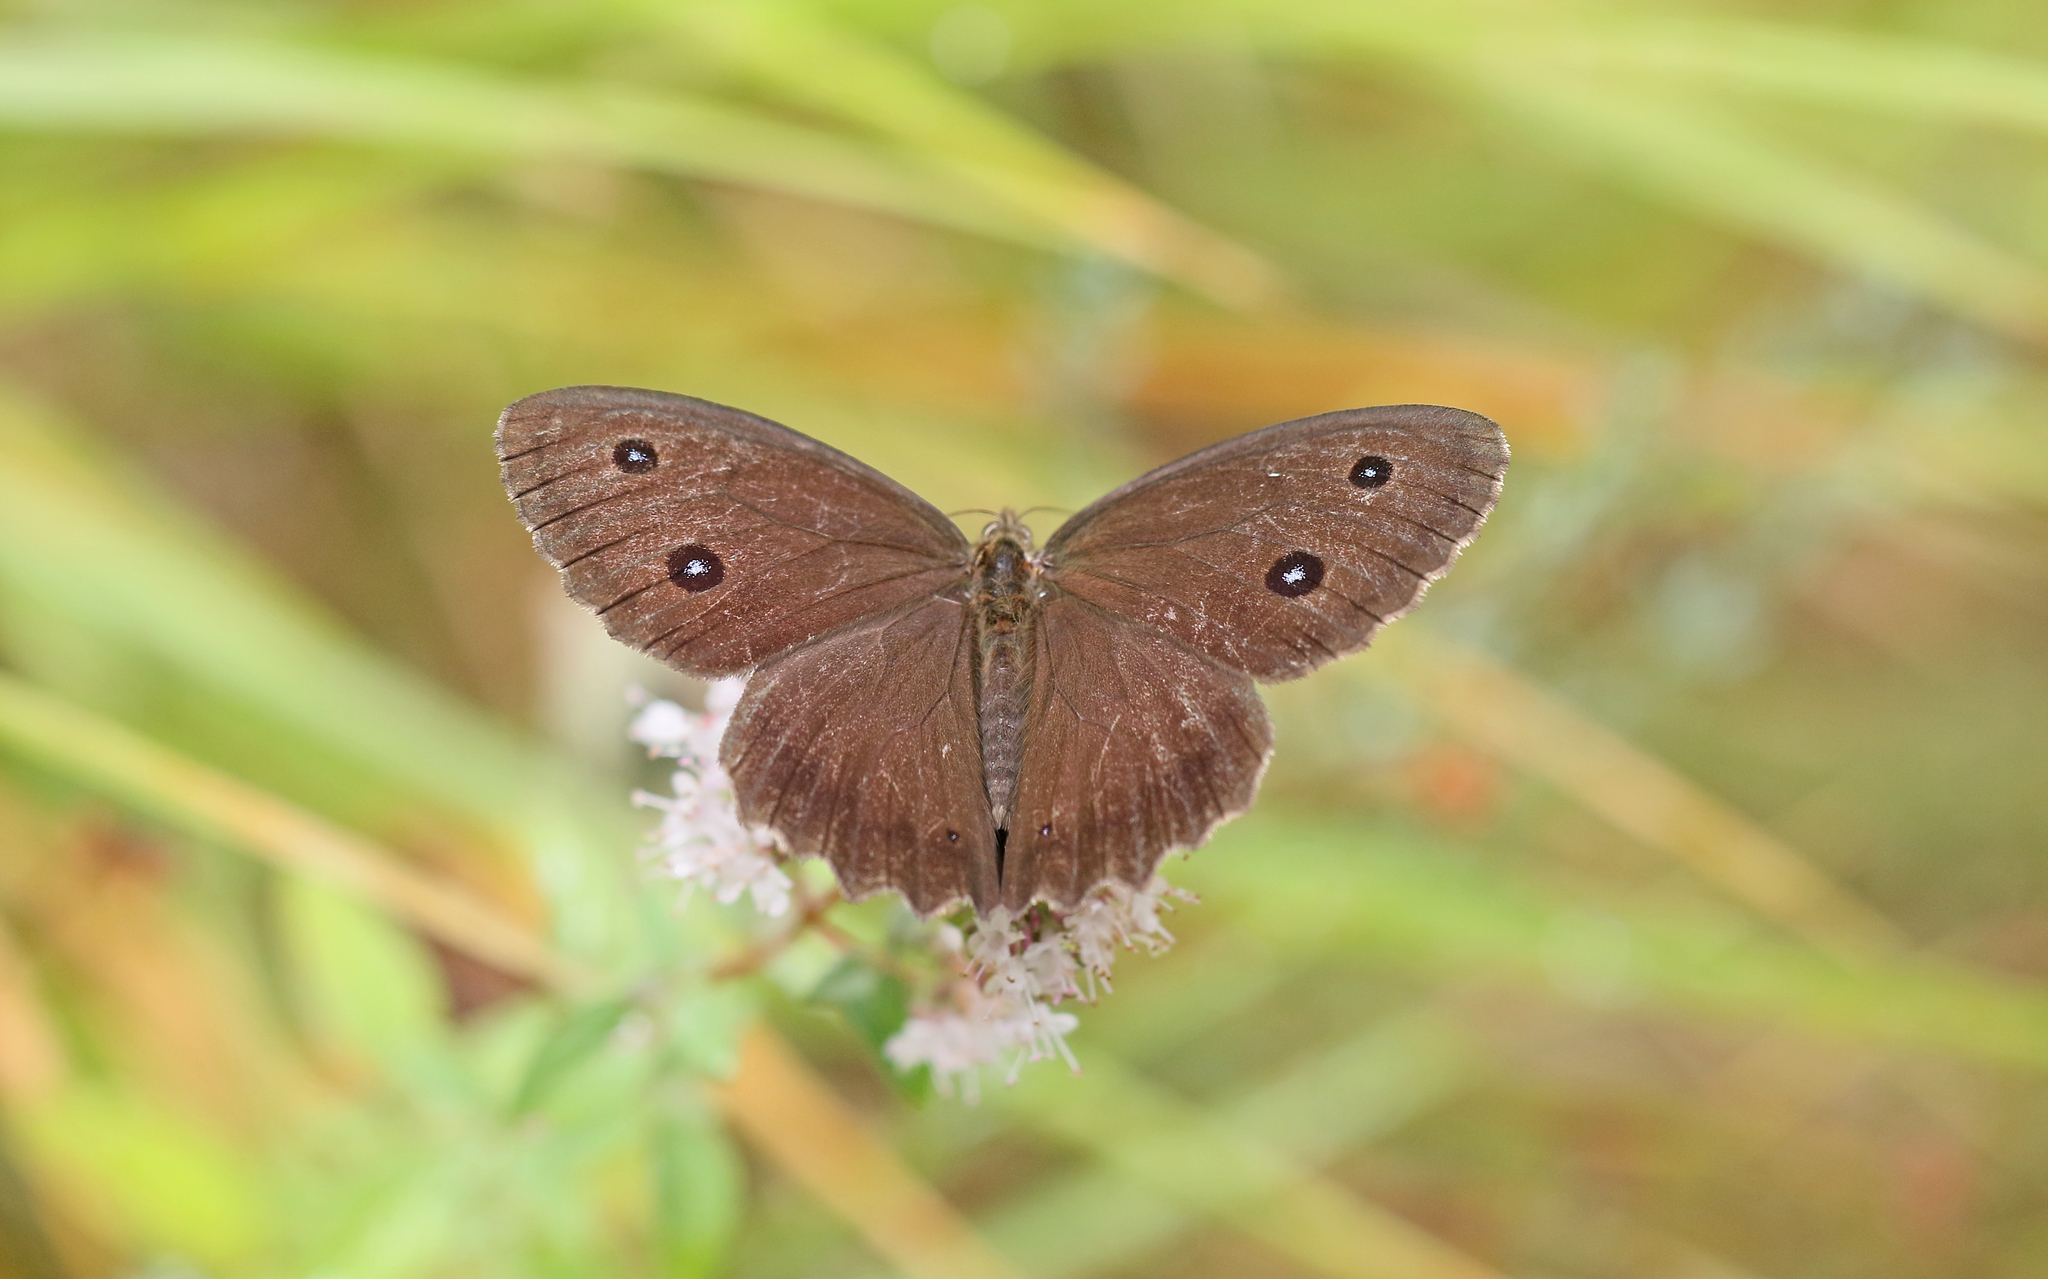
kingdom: Animalia
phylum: Arthropoda
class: Insecta
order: Lepidoptera
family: Nymphalidae
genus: Minois
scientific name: Minois dryas
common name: Dryad
